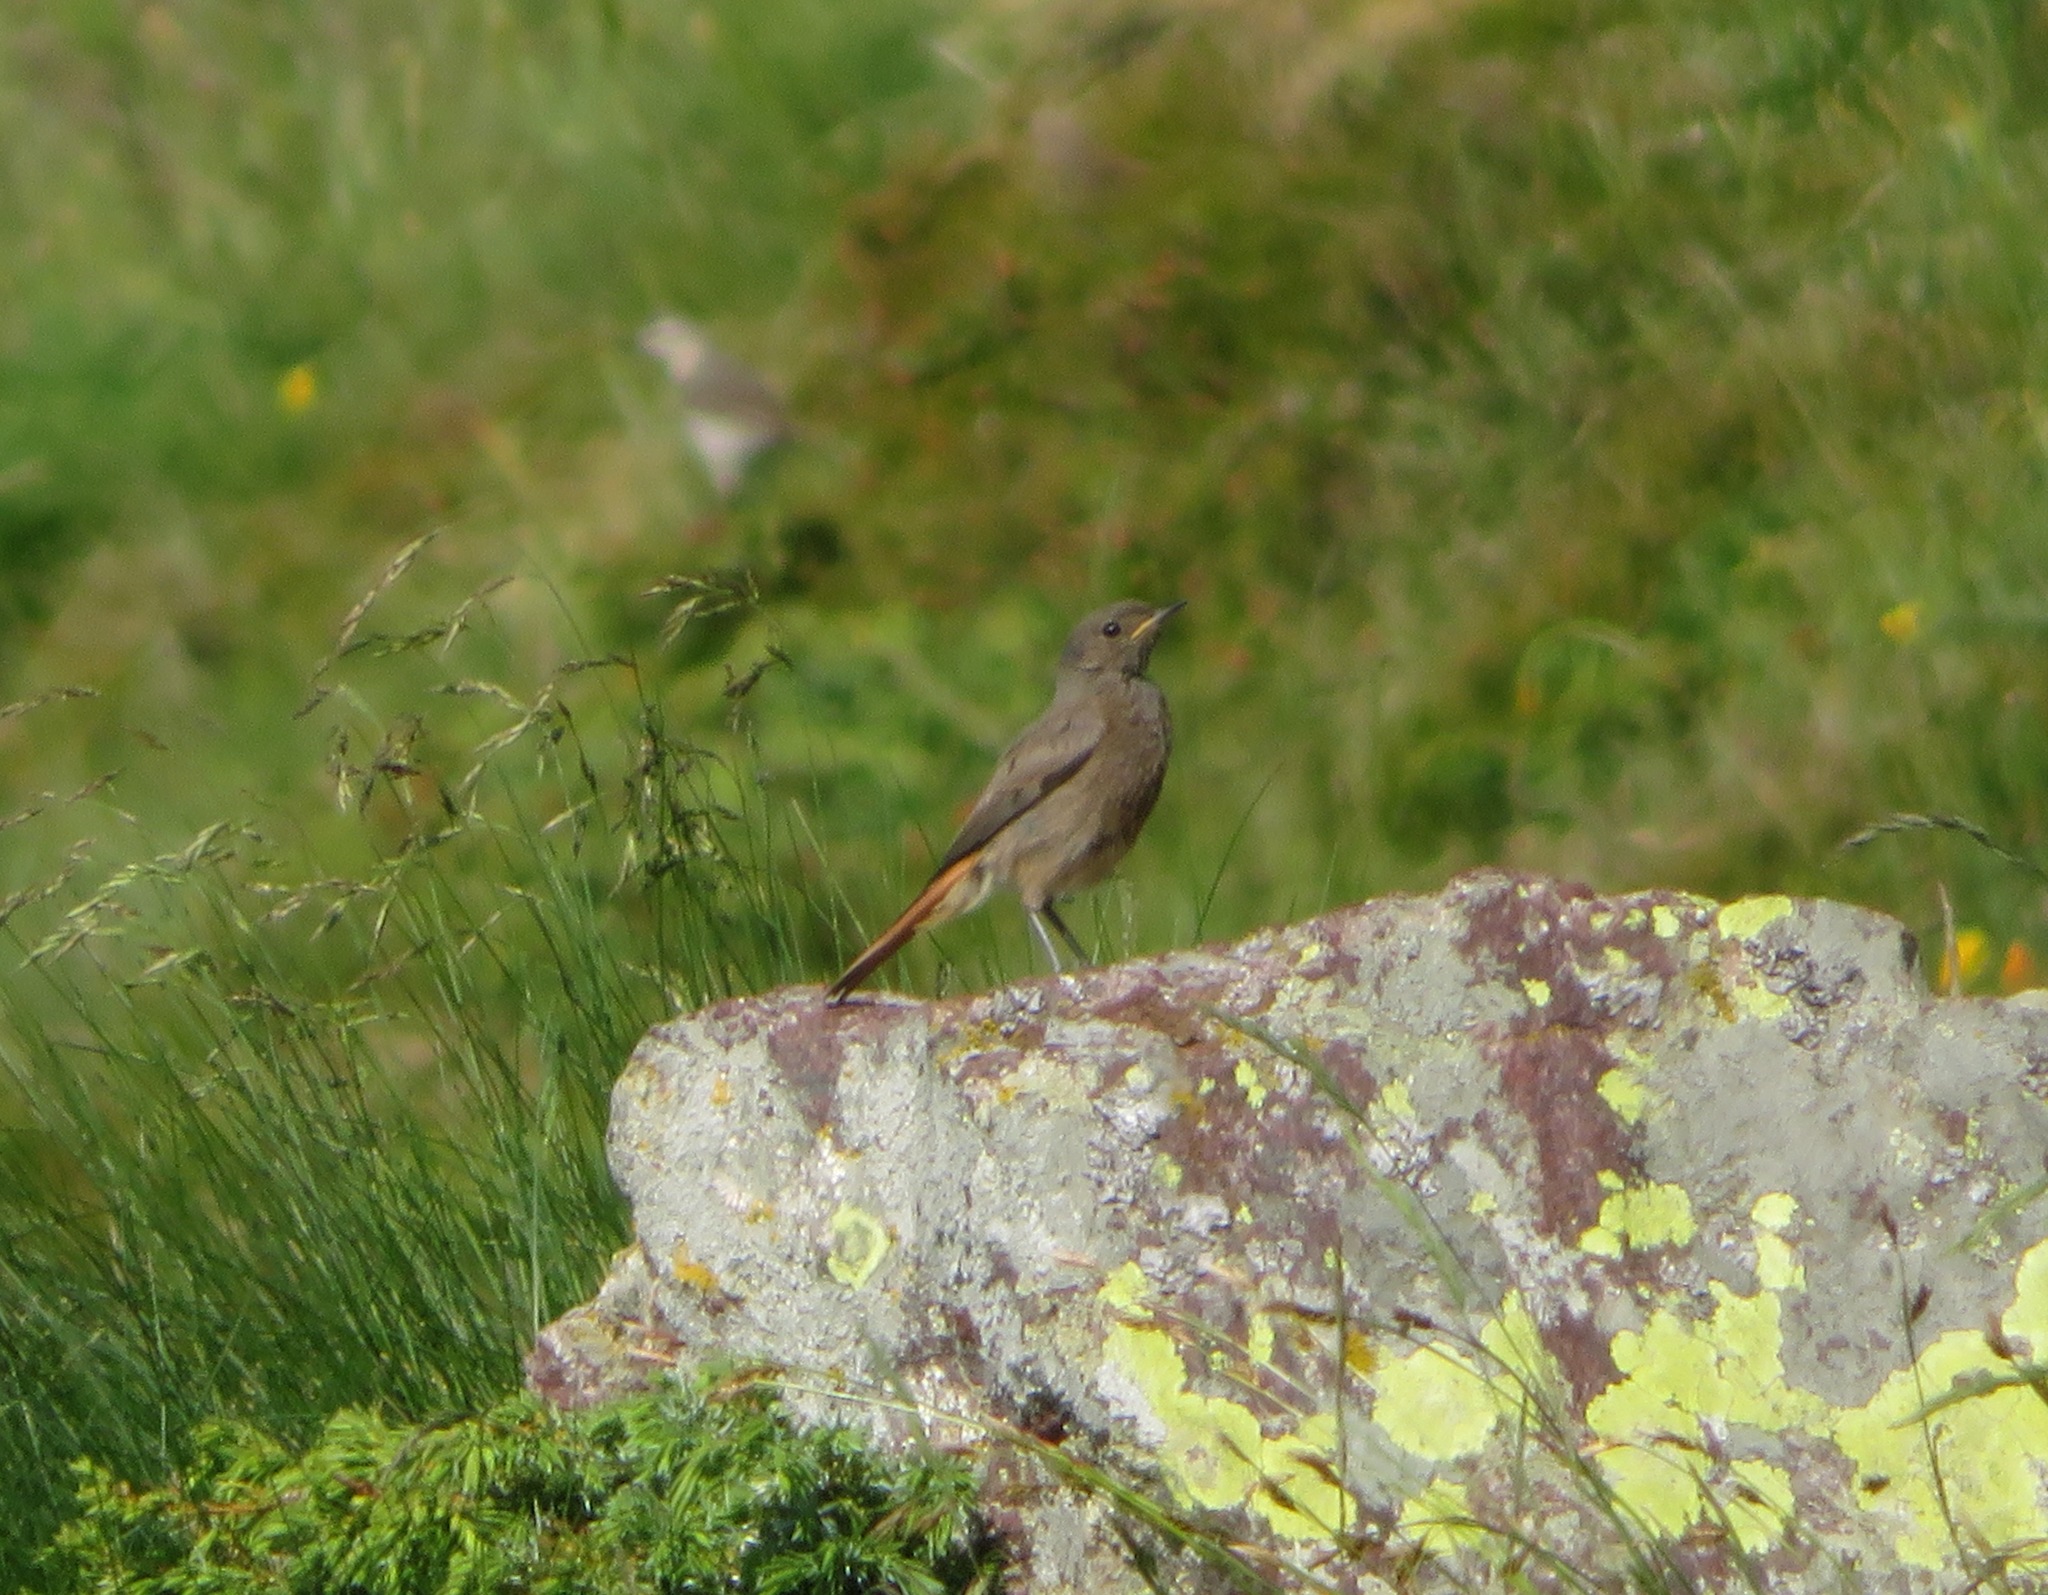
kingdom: Animalia
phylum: Chordata
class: Aves
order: Passeriformes
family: Muscicapidae
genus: Phoenicurus
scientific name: Phoenicurus ochruros
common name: Black redstart
